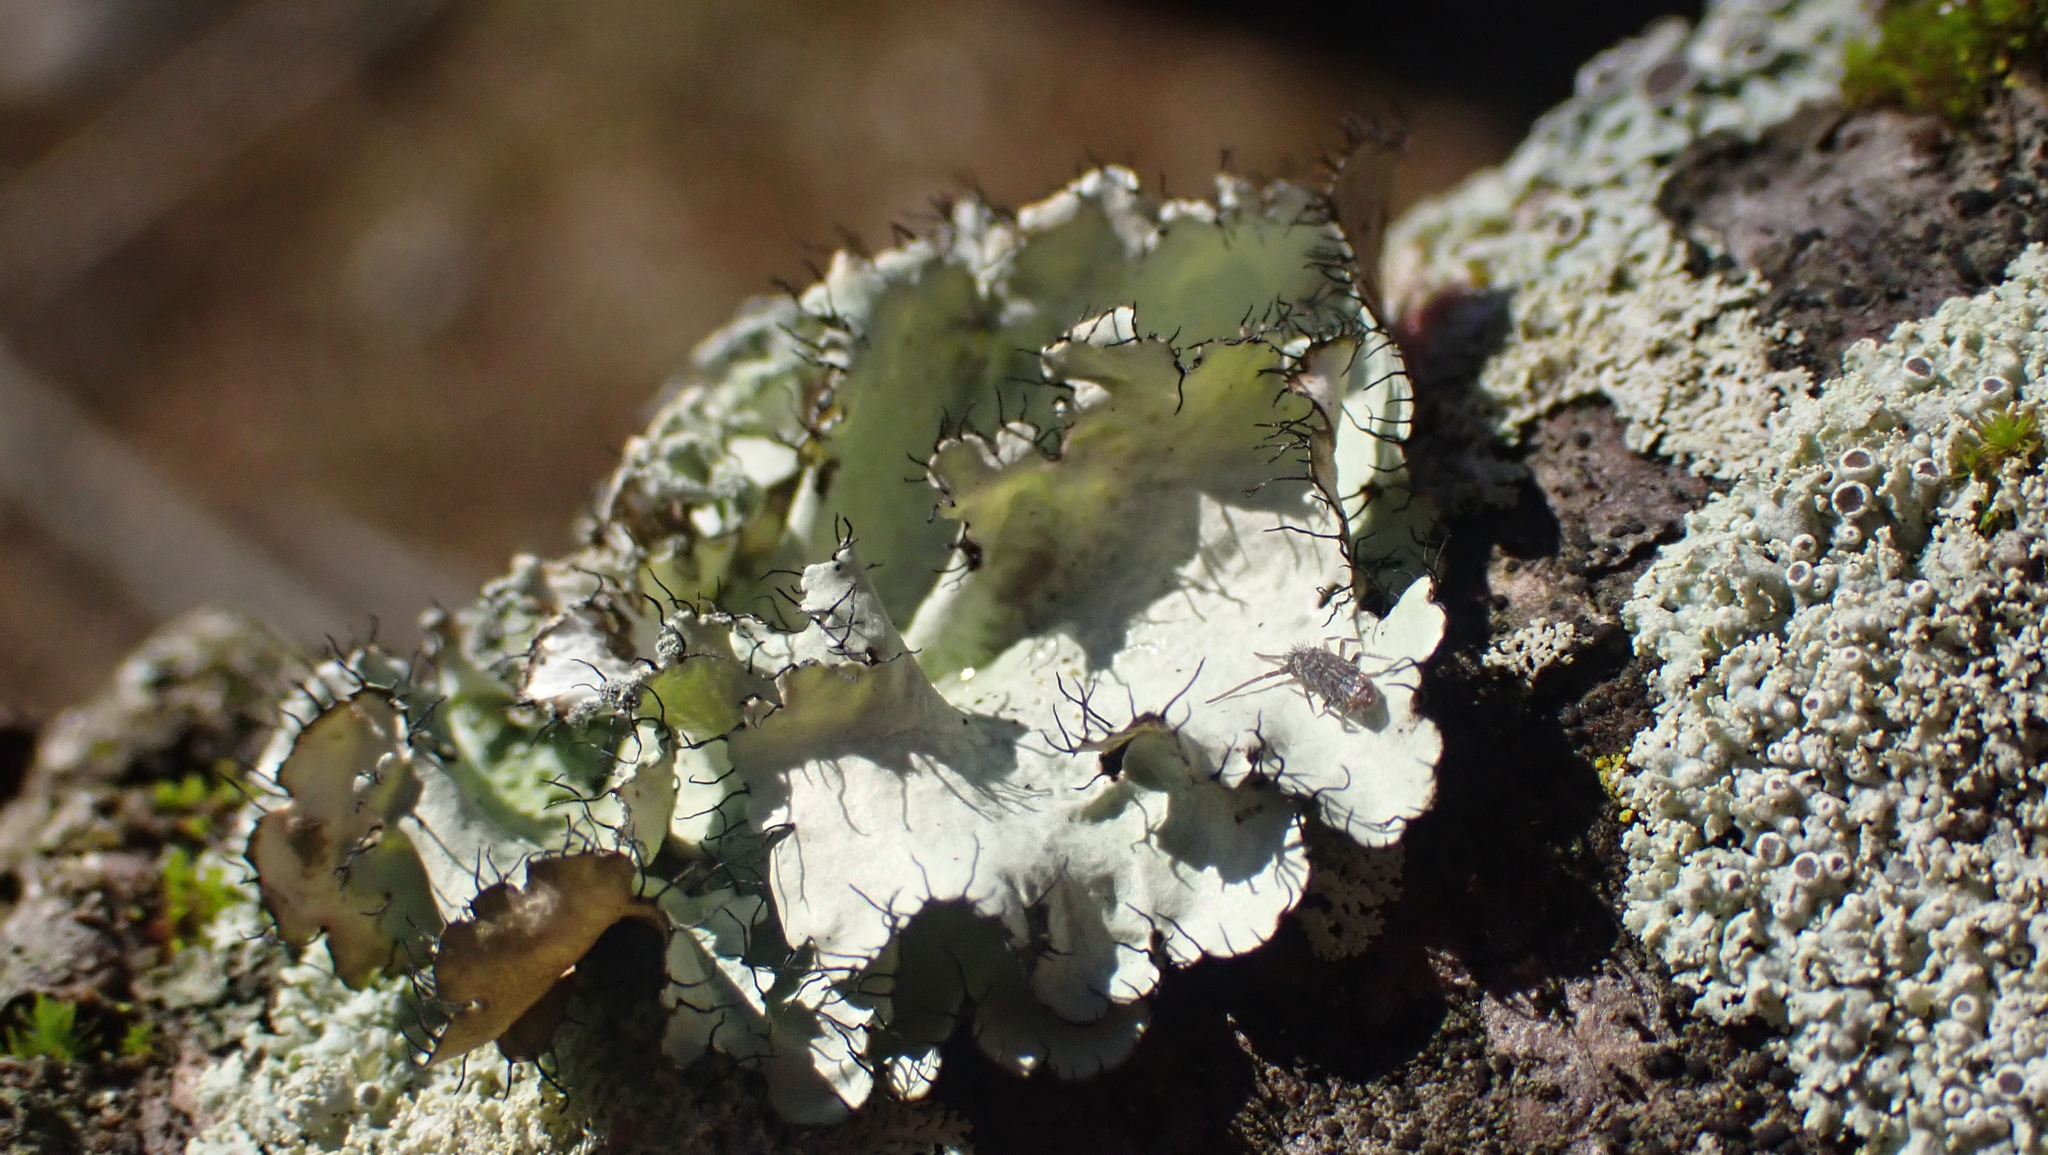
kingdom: Fungi
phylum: Ascomycota
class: Lecanoromycetes
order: Lecanorales
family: Parmeliaceae
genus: Parmotrema
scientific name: Parmotrema hypotropum
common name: Powdered ruffle lichen
